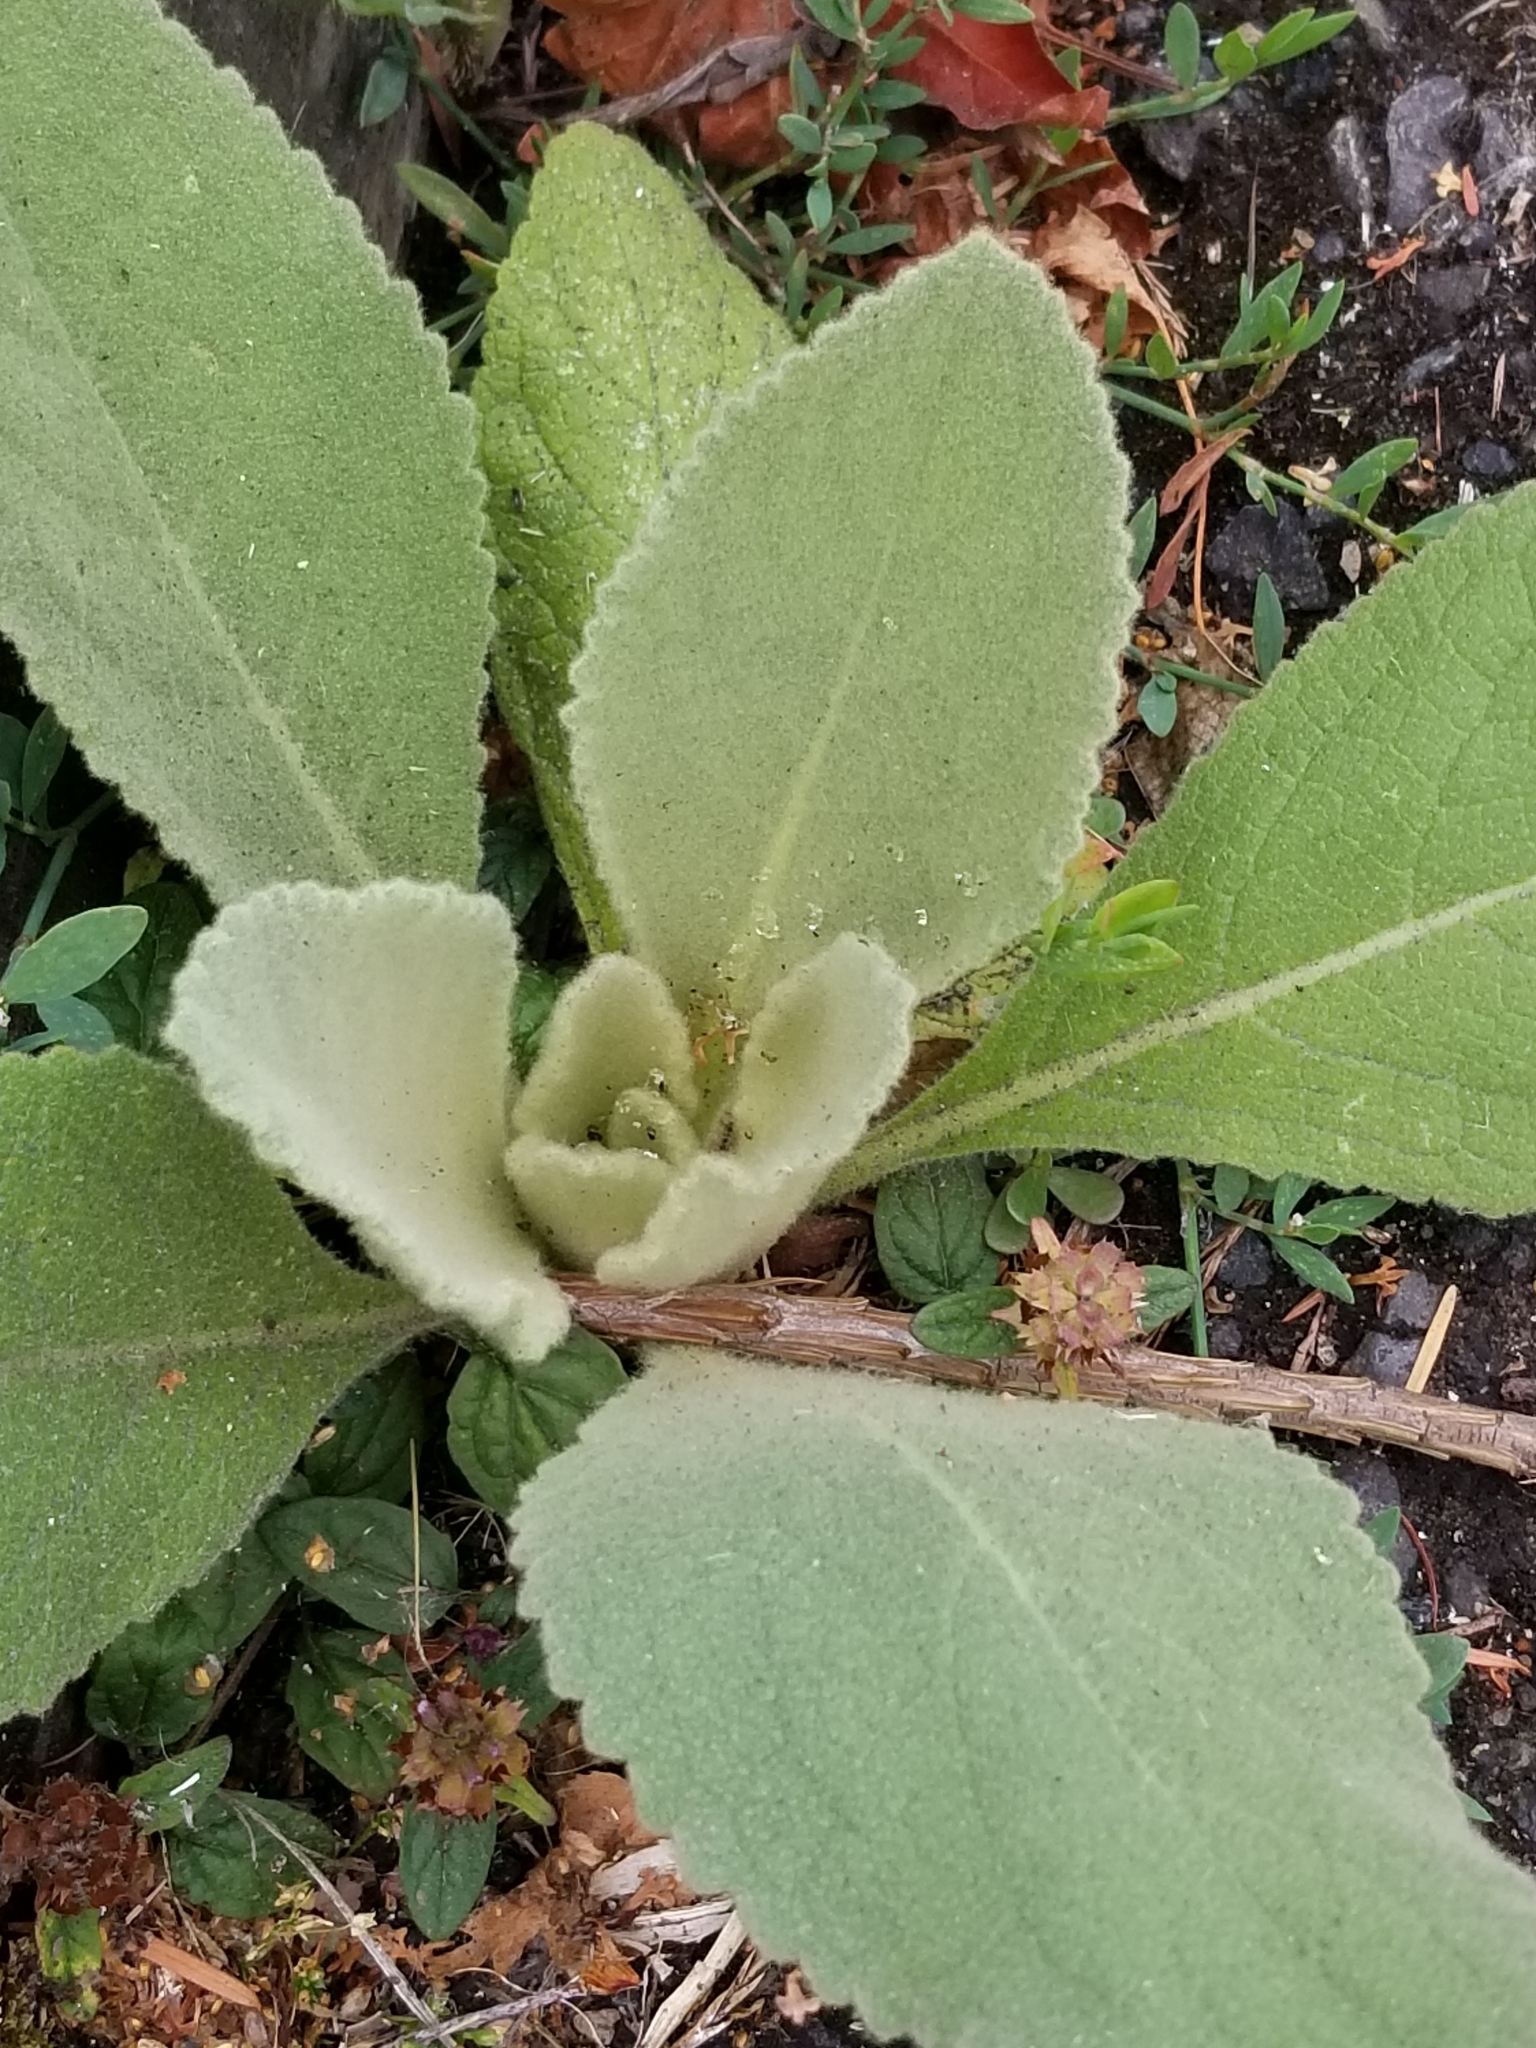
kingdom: Plantae
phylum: Tracheophyta
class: Magnoliopsida
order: Lamiales
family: Scrophulariaceae
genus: Verbascum
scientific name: Verbascum thapsus
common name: Common mullein
